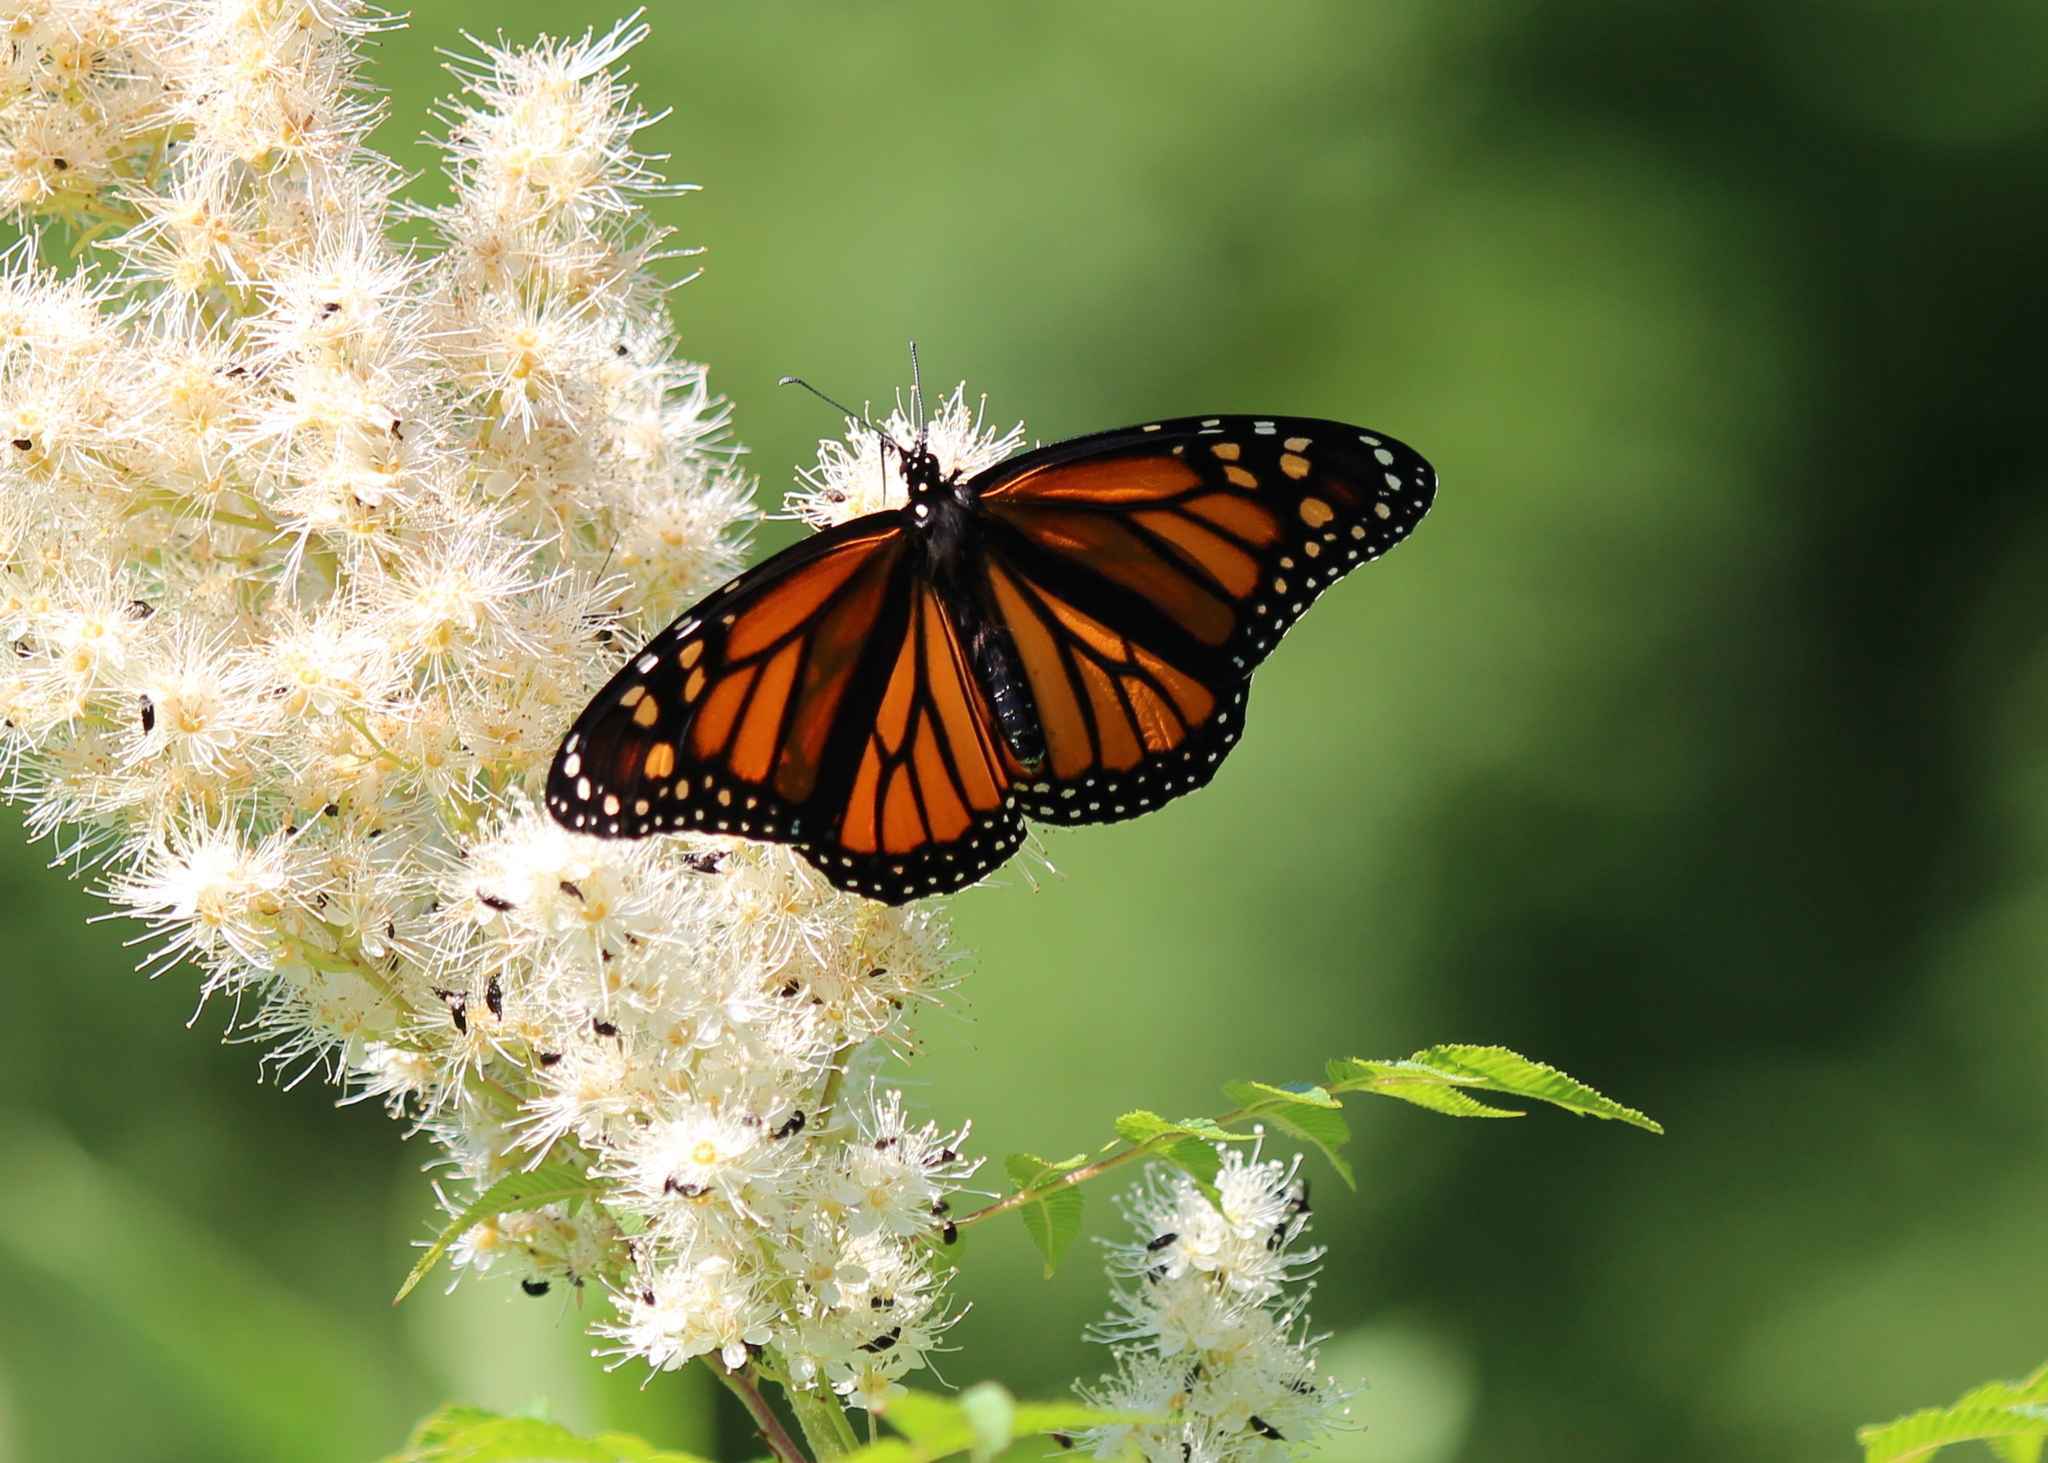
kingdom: Animalia
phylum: Arthropoda
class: Insecta
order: Lepidoptera
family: Nymphalidae
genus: Danaus
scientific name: Danaus plexippus
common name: Monarch
